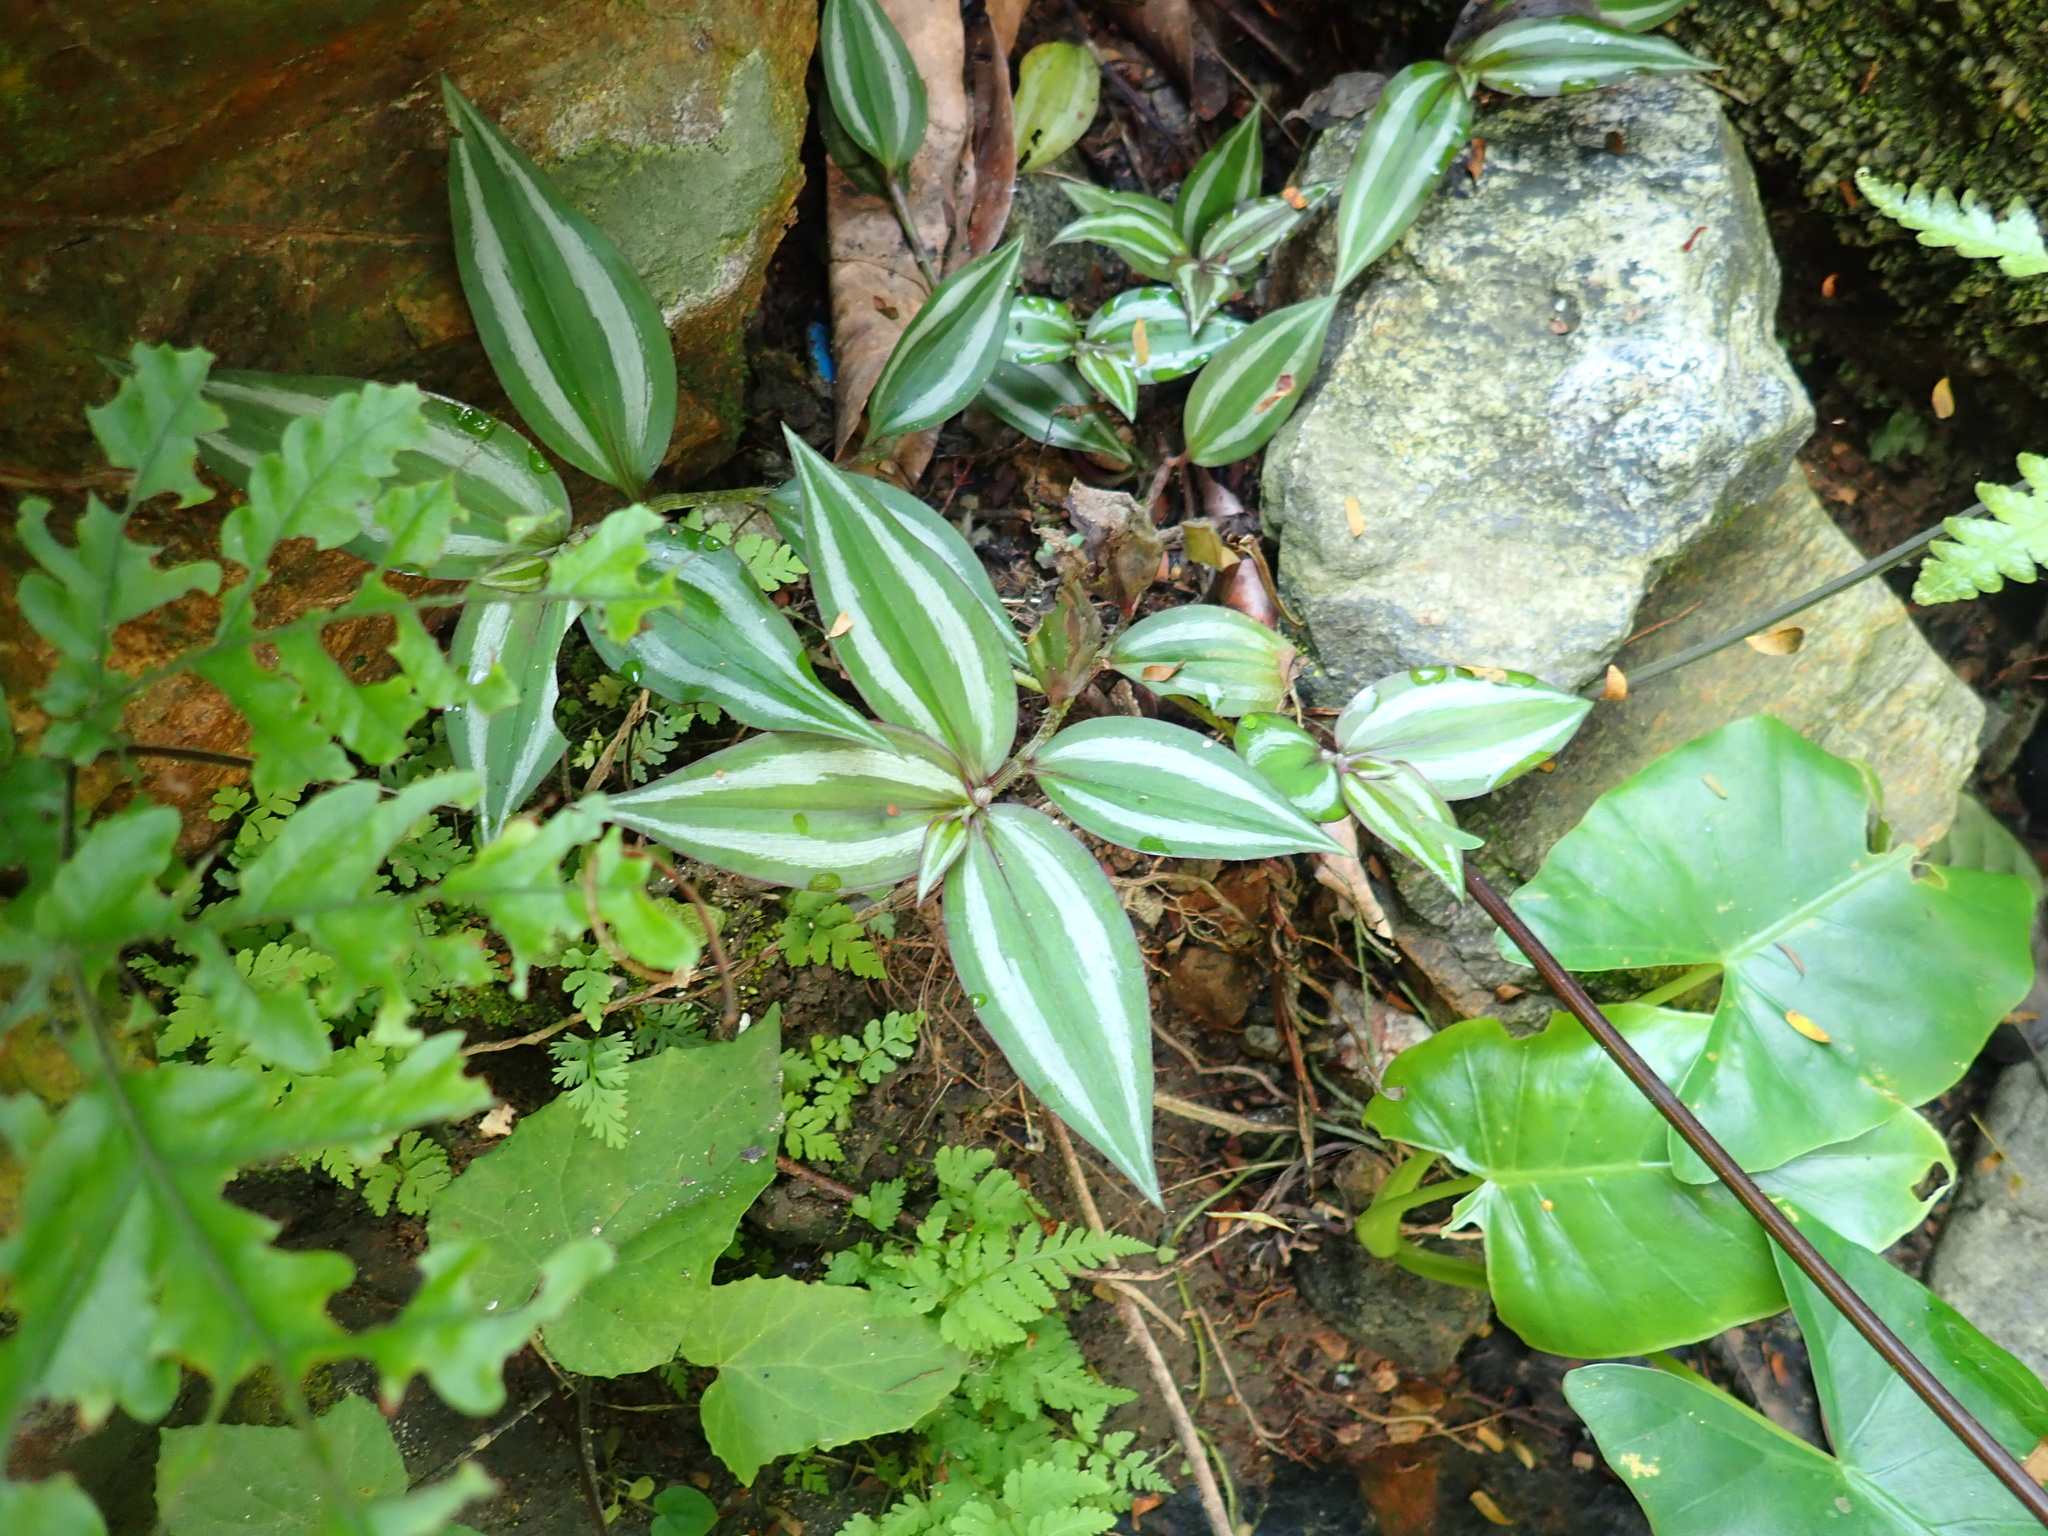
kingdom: Plantae
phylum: Tracheophyta
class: Liliopsida
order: Commelinales
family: Commelinaceae
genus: Tradescantia
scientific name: Tradescantia zebrina
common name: Inchplant
